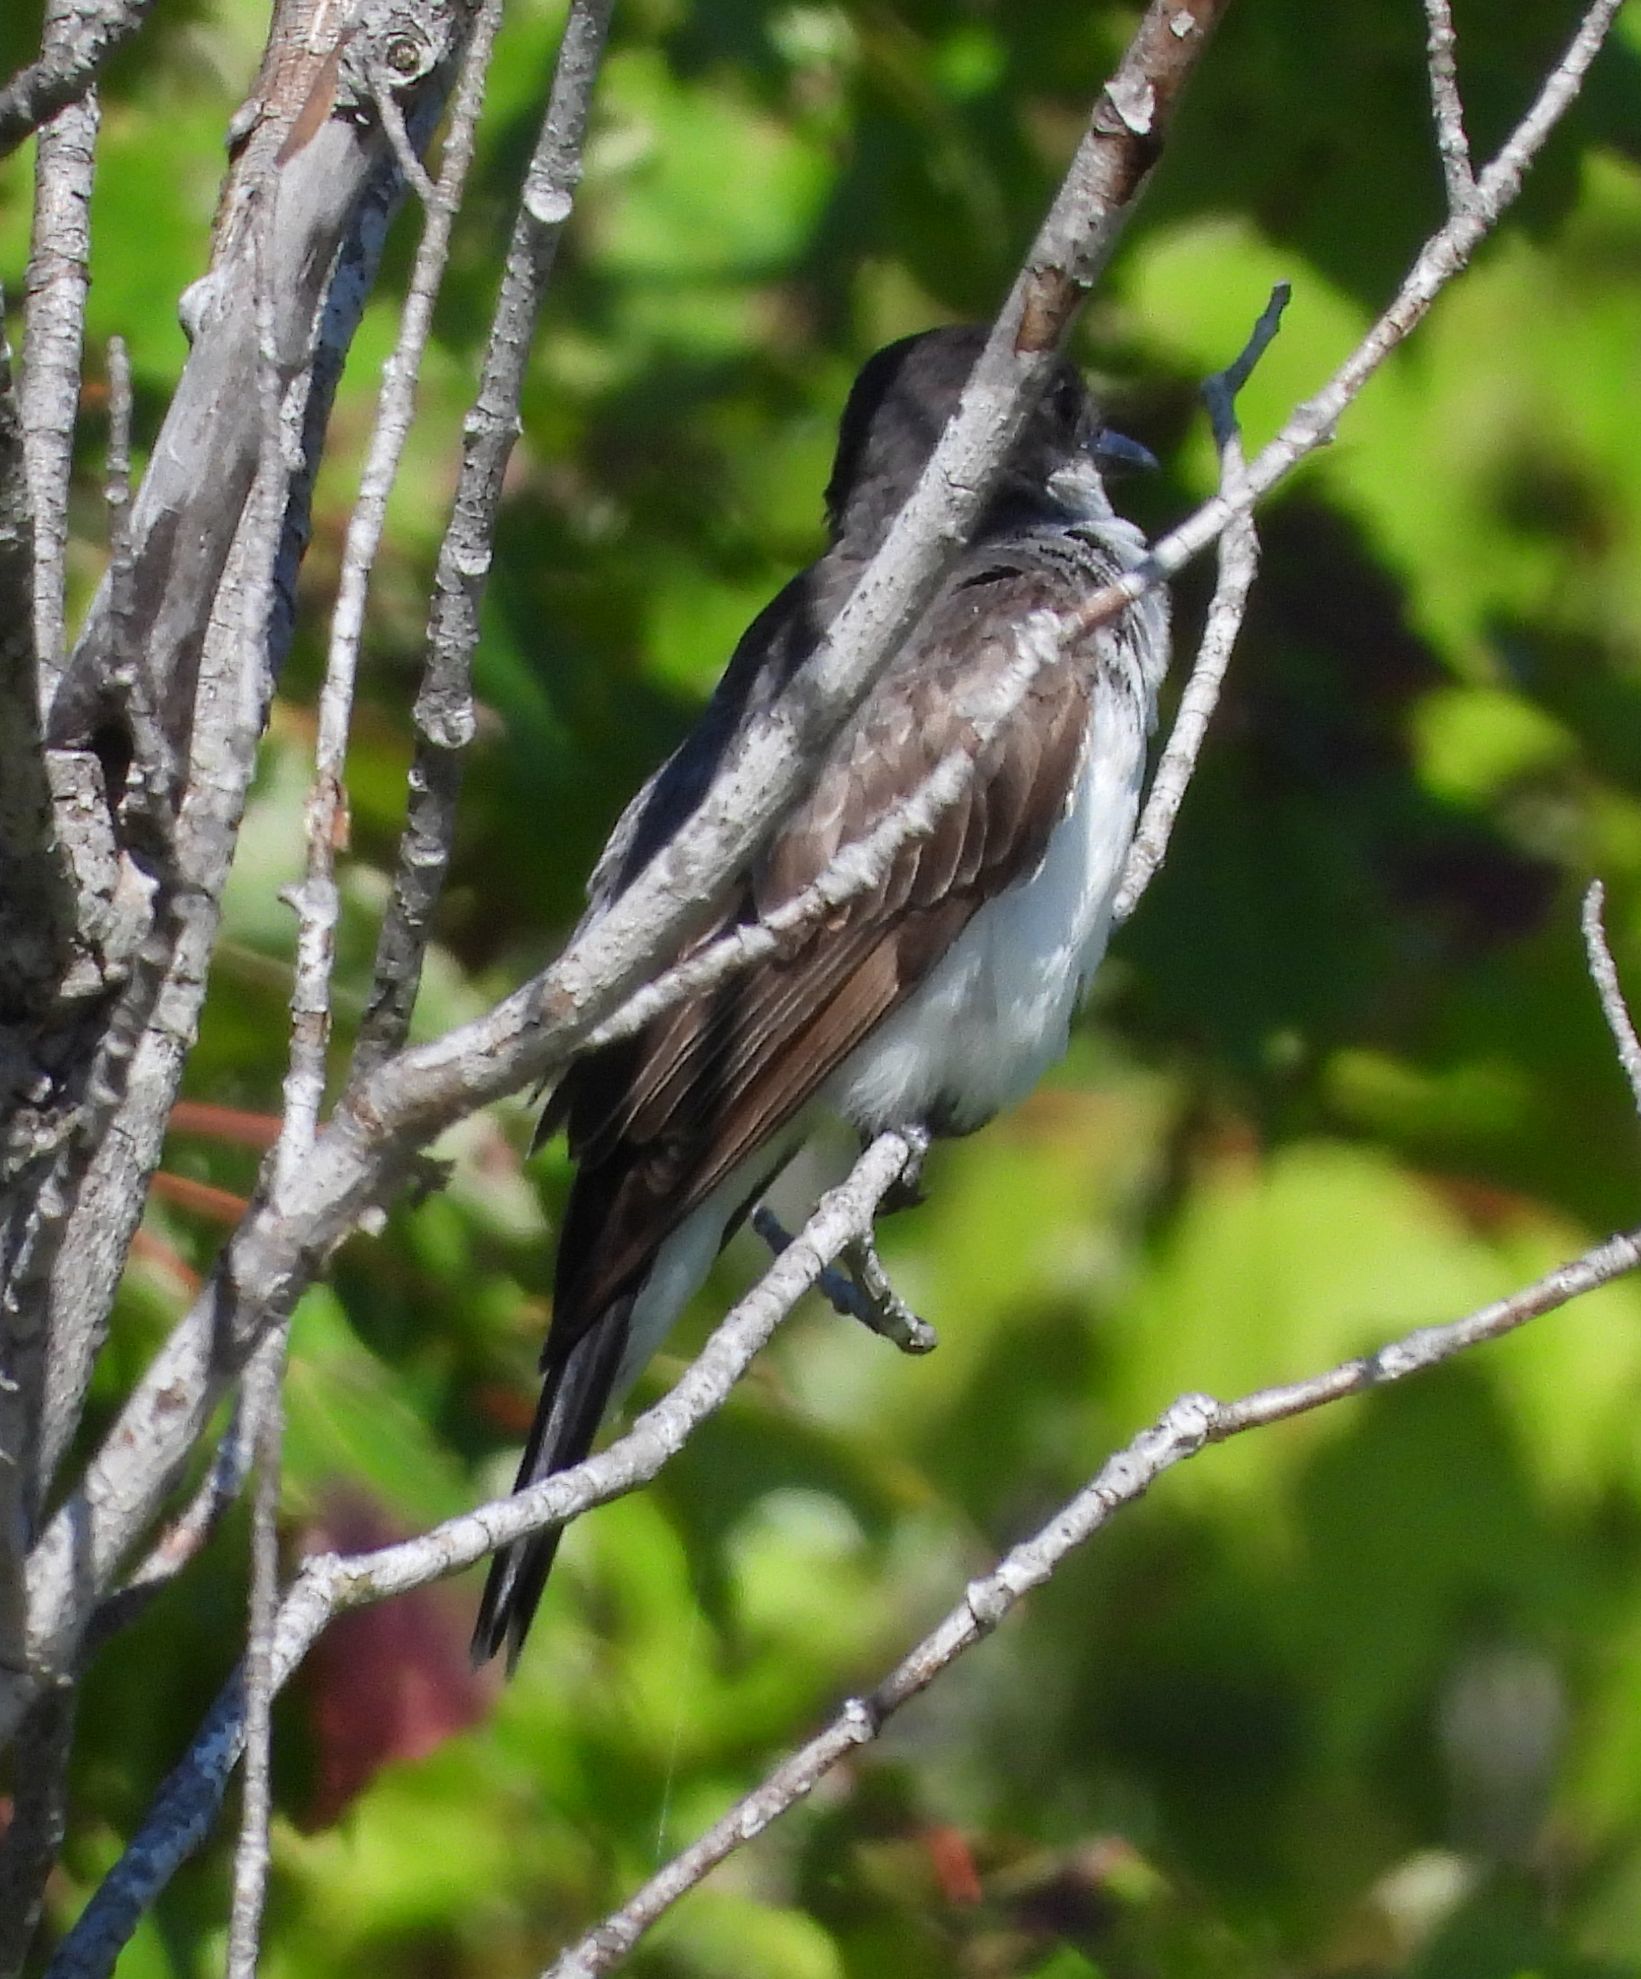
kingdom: Animalia
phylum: Chordata
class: Aves
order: Passeriformes
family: Tyrannidae
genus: Tyrannus
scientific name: Tyrannus tyrannus
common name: Eastern kingbird
